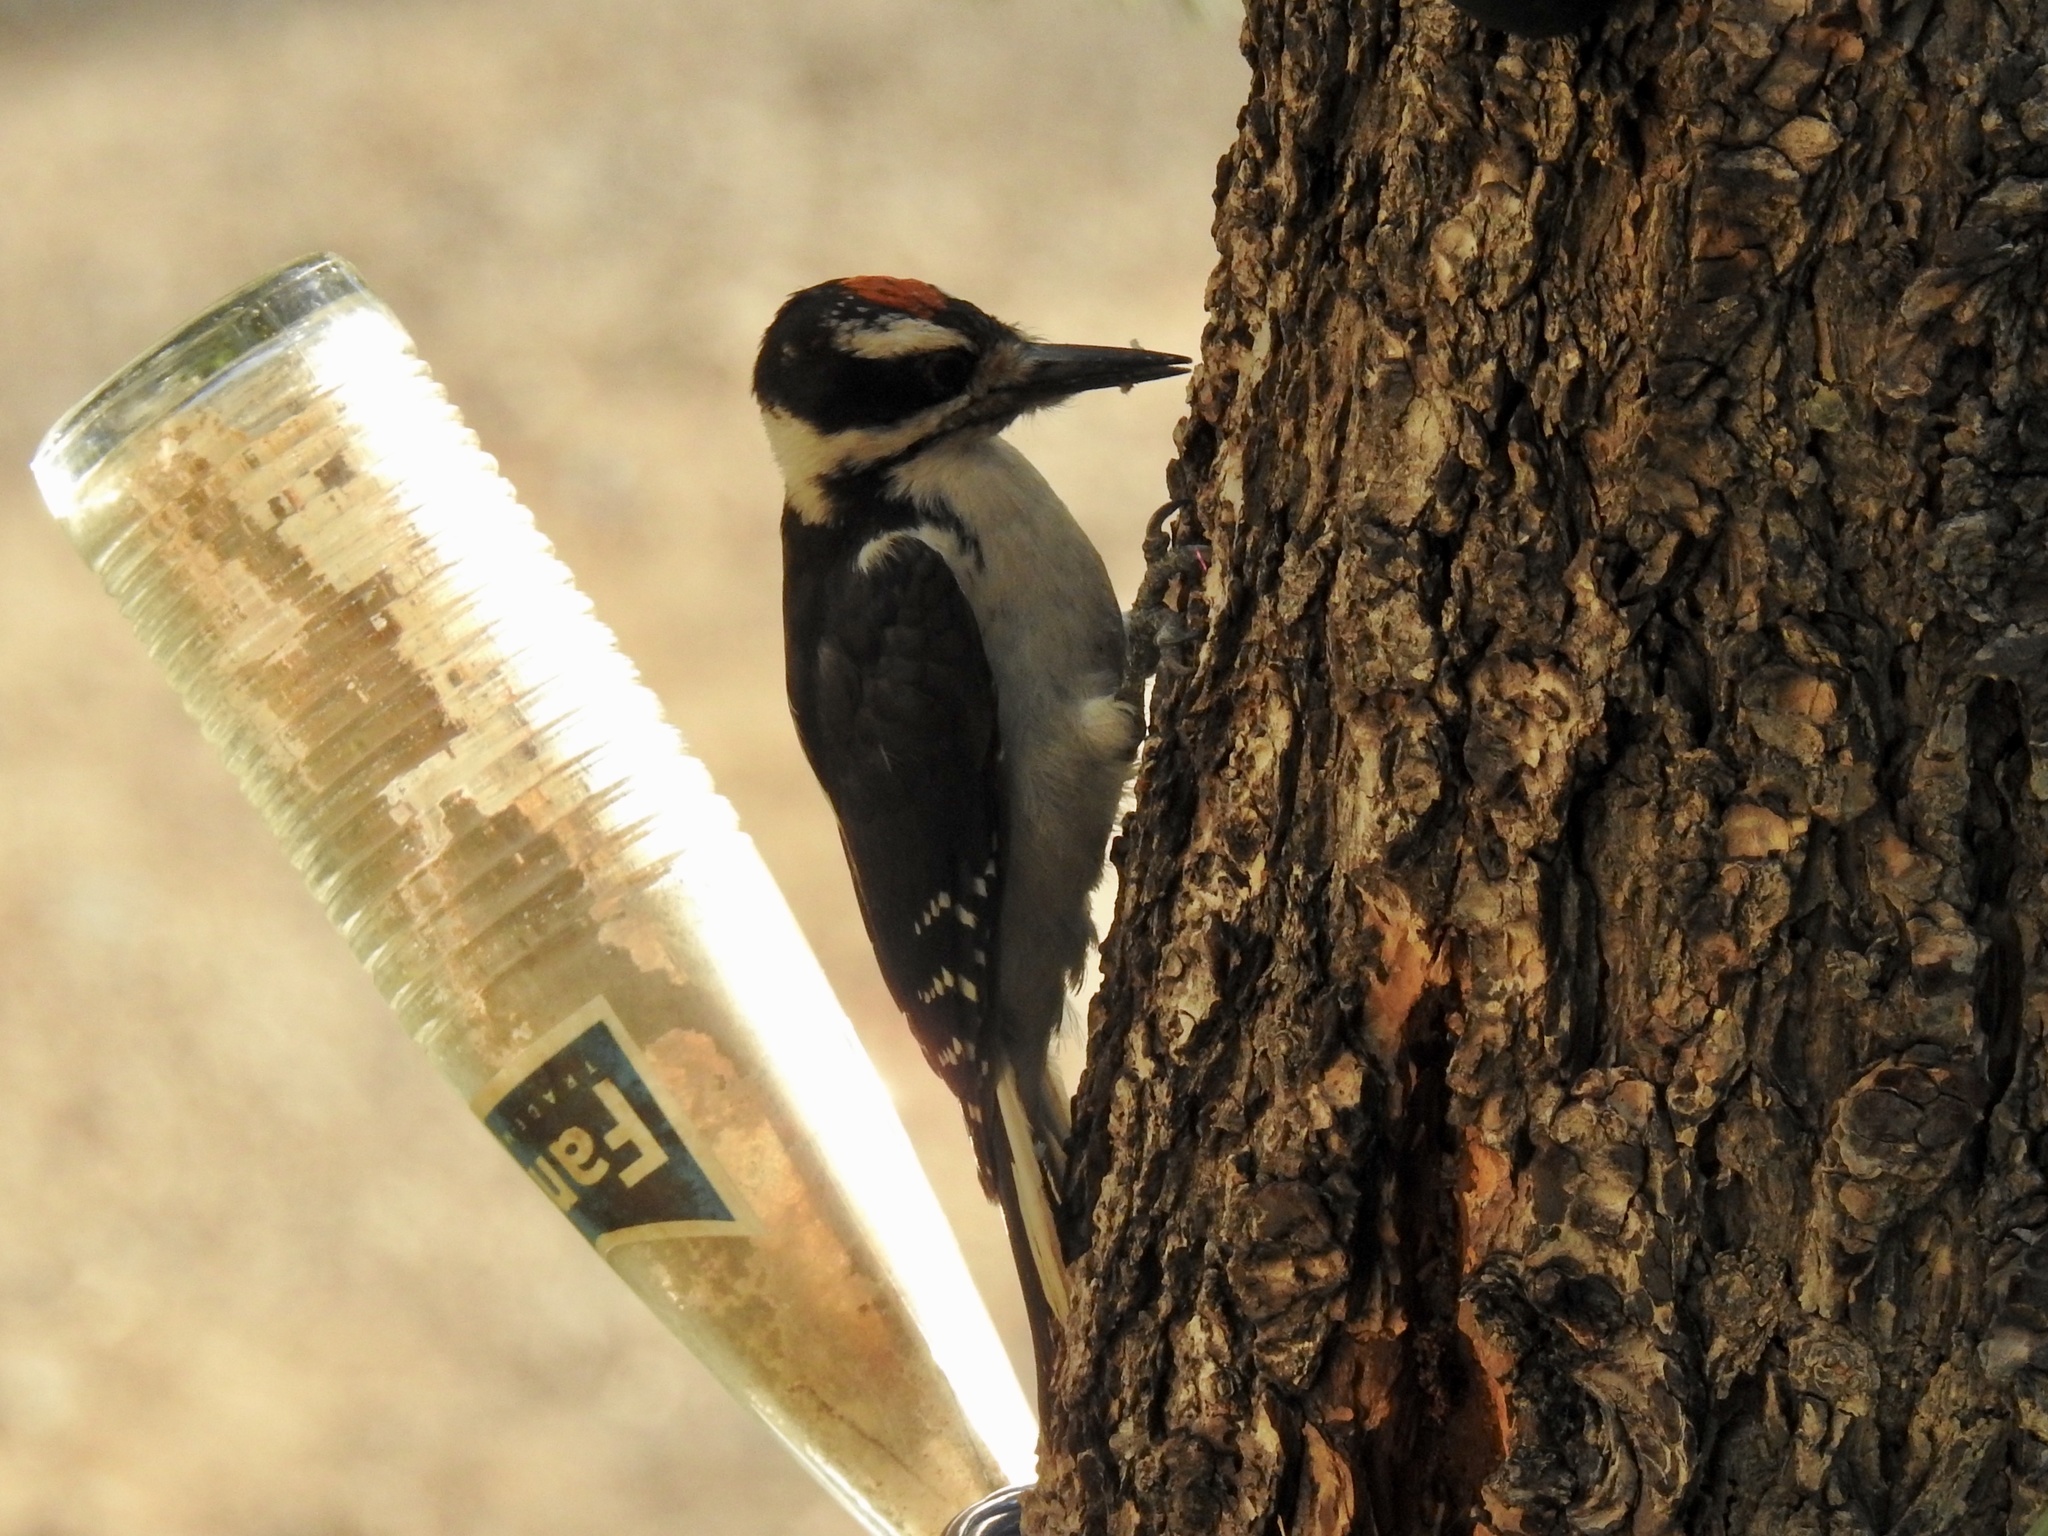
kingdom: Animalia
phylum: Chordata
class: Aves
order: Piciformes
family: Picidae
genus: Leuconotopicus
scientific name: Leuconotopicus villosus
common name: Hairy woodpecker
